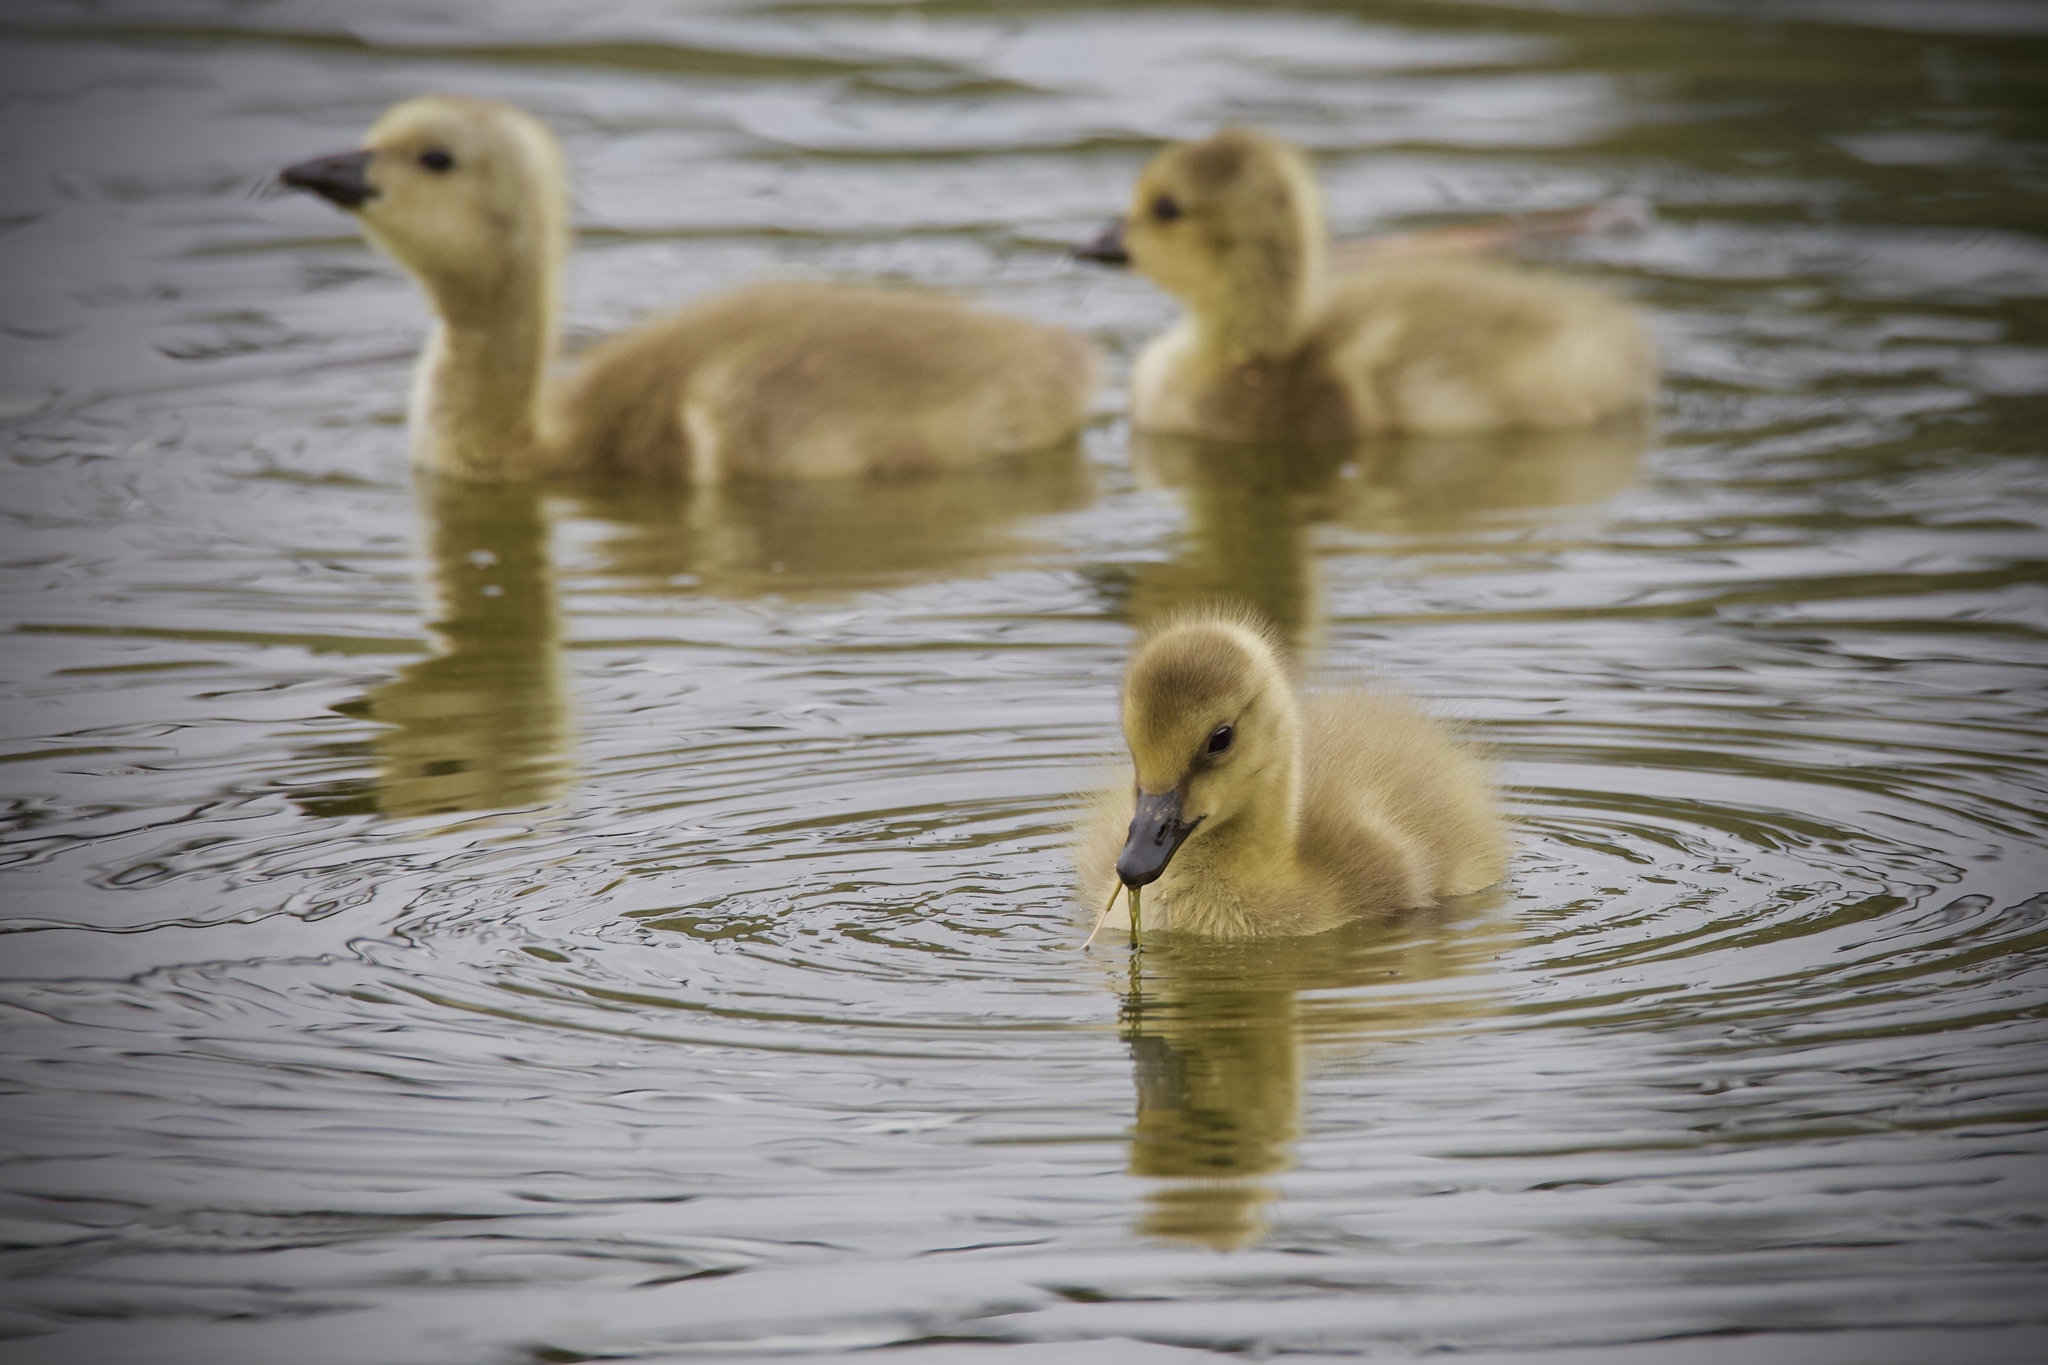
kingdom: Animalia
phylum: Chordata
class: Aves
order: Anseriformes
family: Anatidae
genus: Branta
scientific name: Branta canadensis
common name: Canada goose
